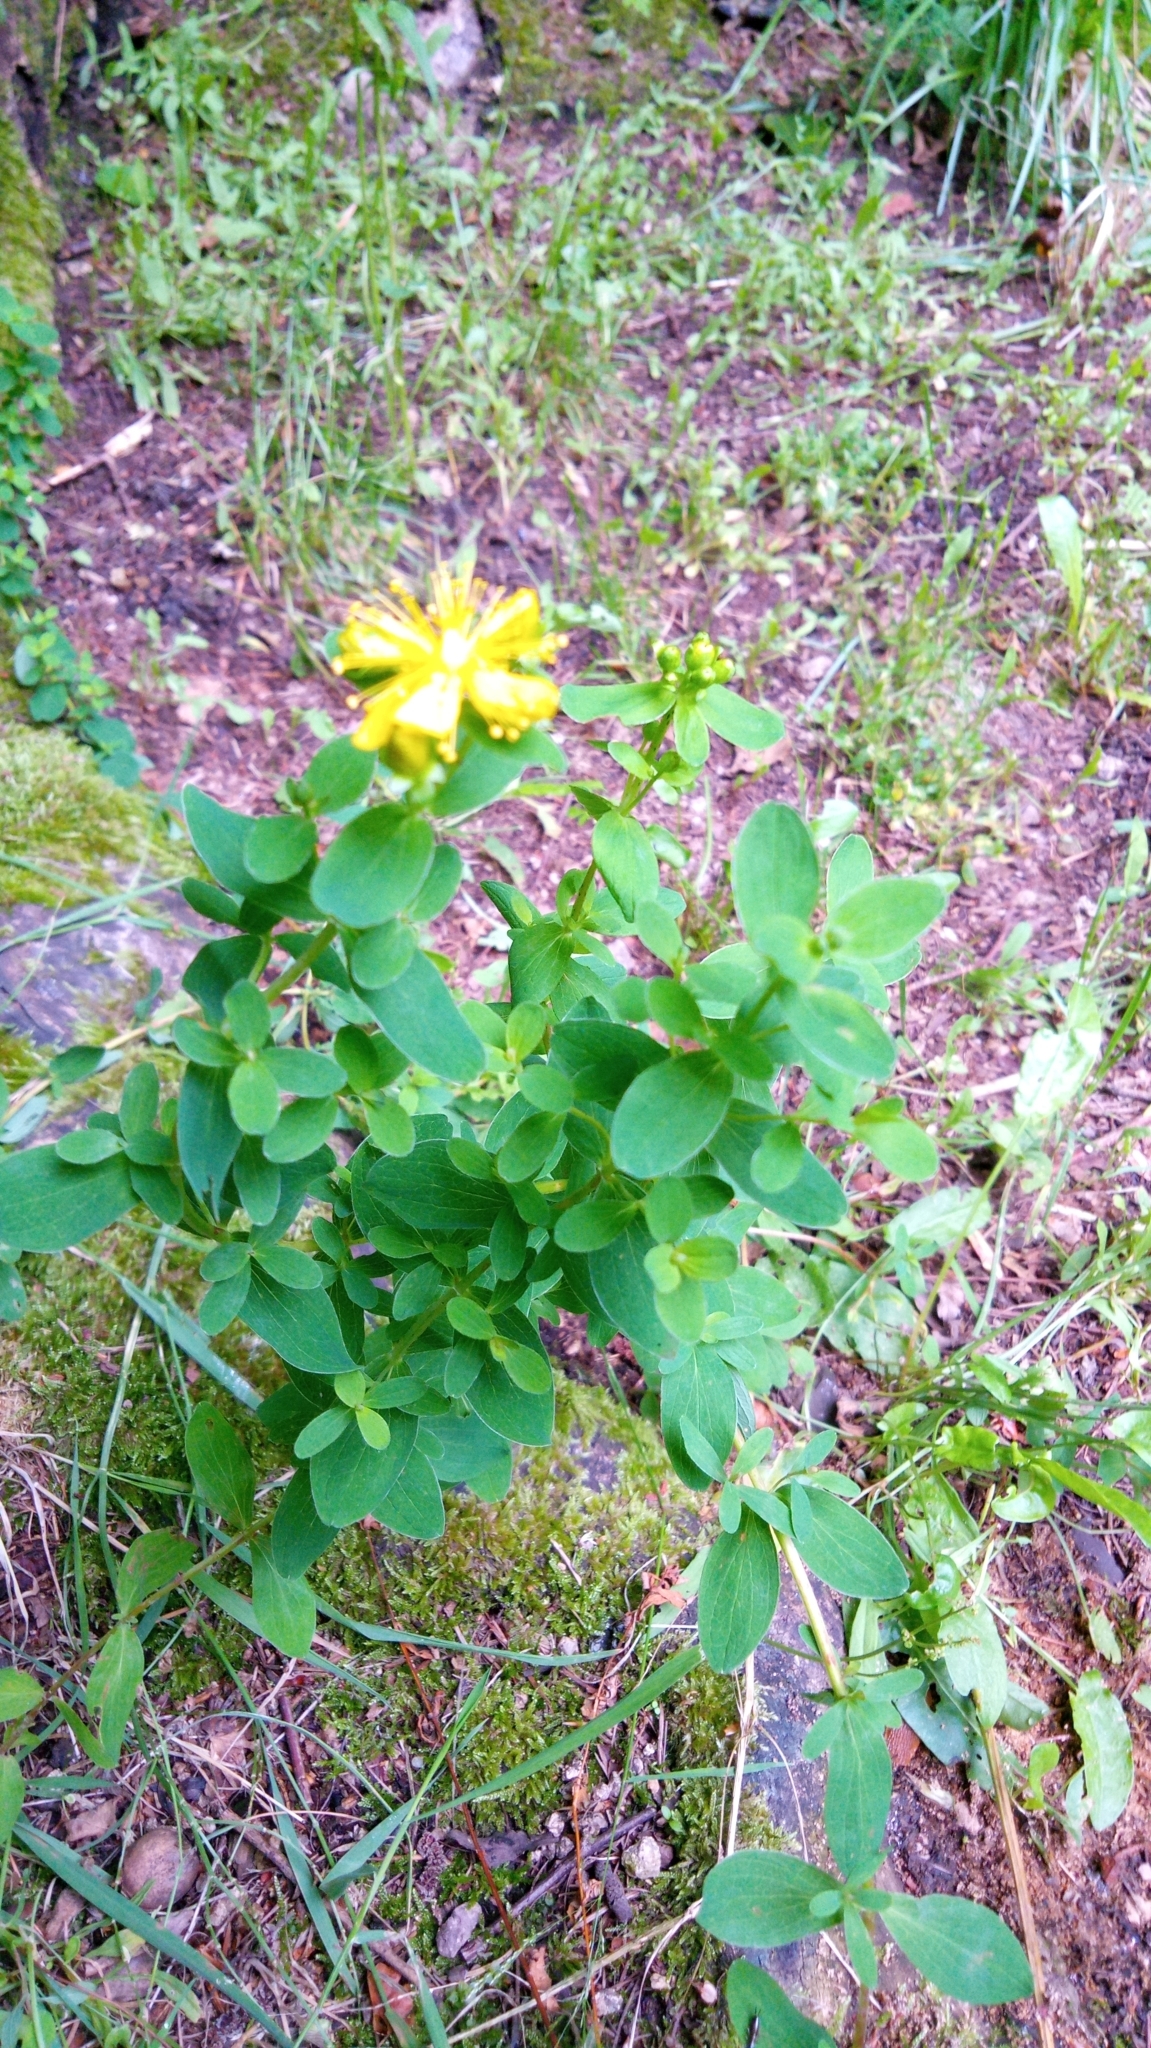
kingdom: Plantae
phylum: Tracheophyta
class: Magnoliopsida
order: Malpighiales
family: Hypericaceae
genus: Hypericum
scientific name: Hypericum maculatum
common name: Imperforate st. john's-wort
